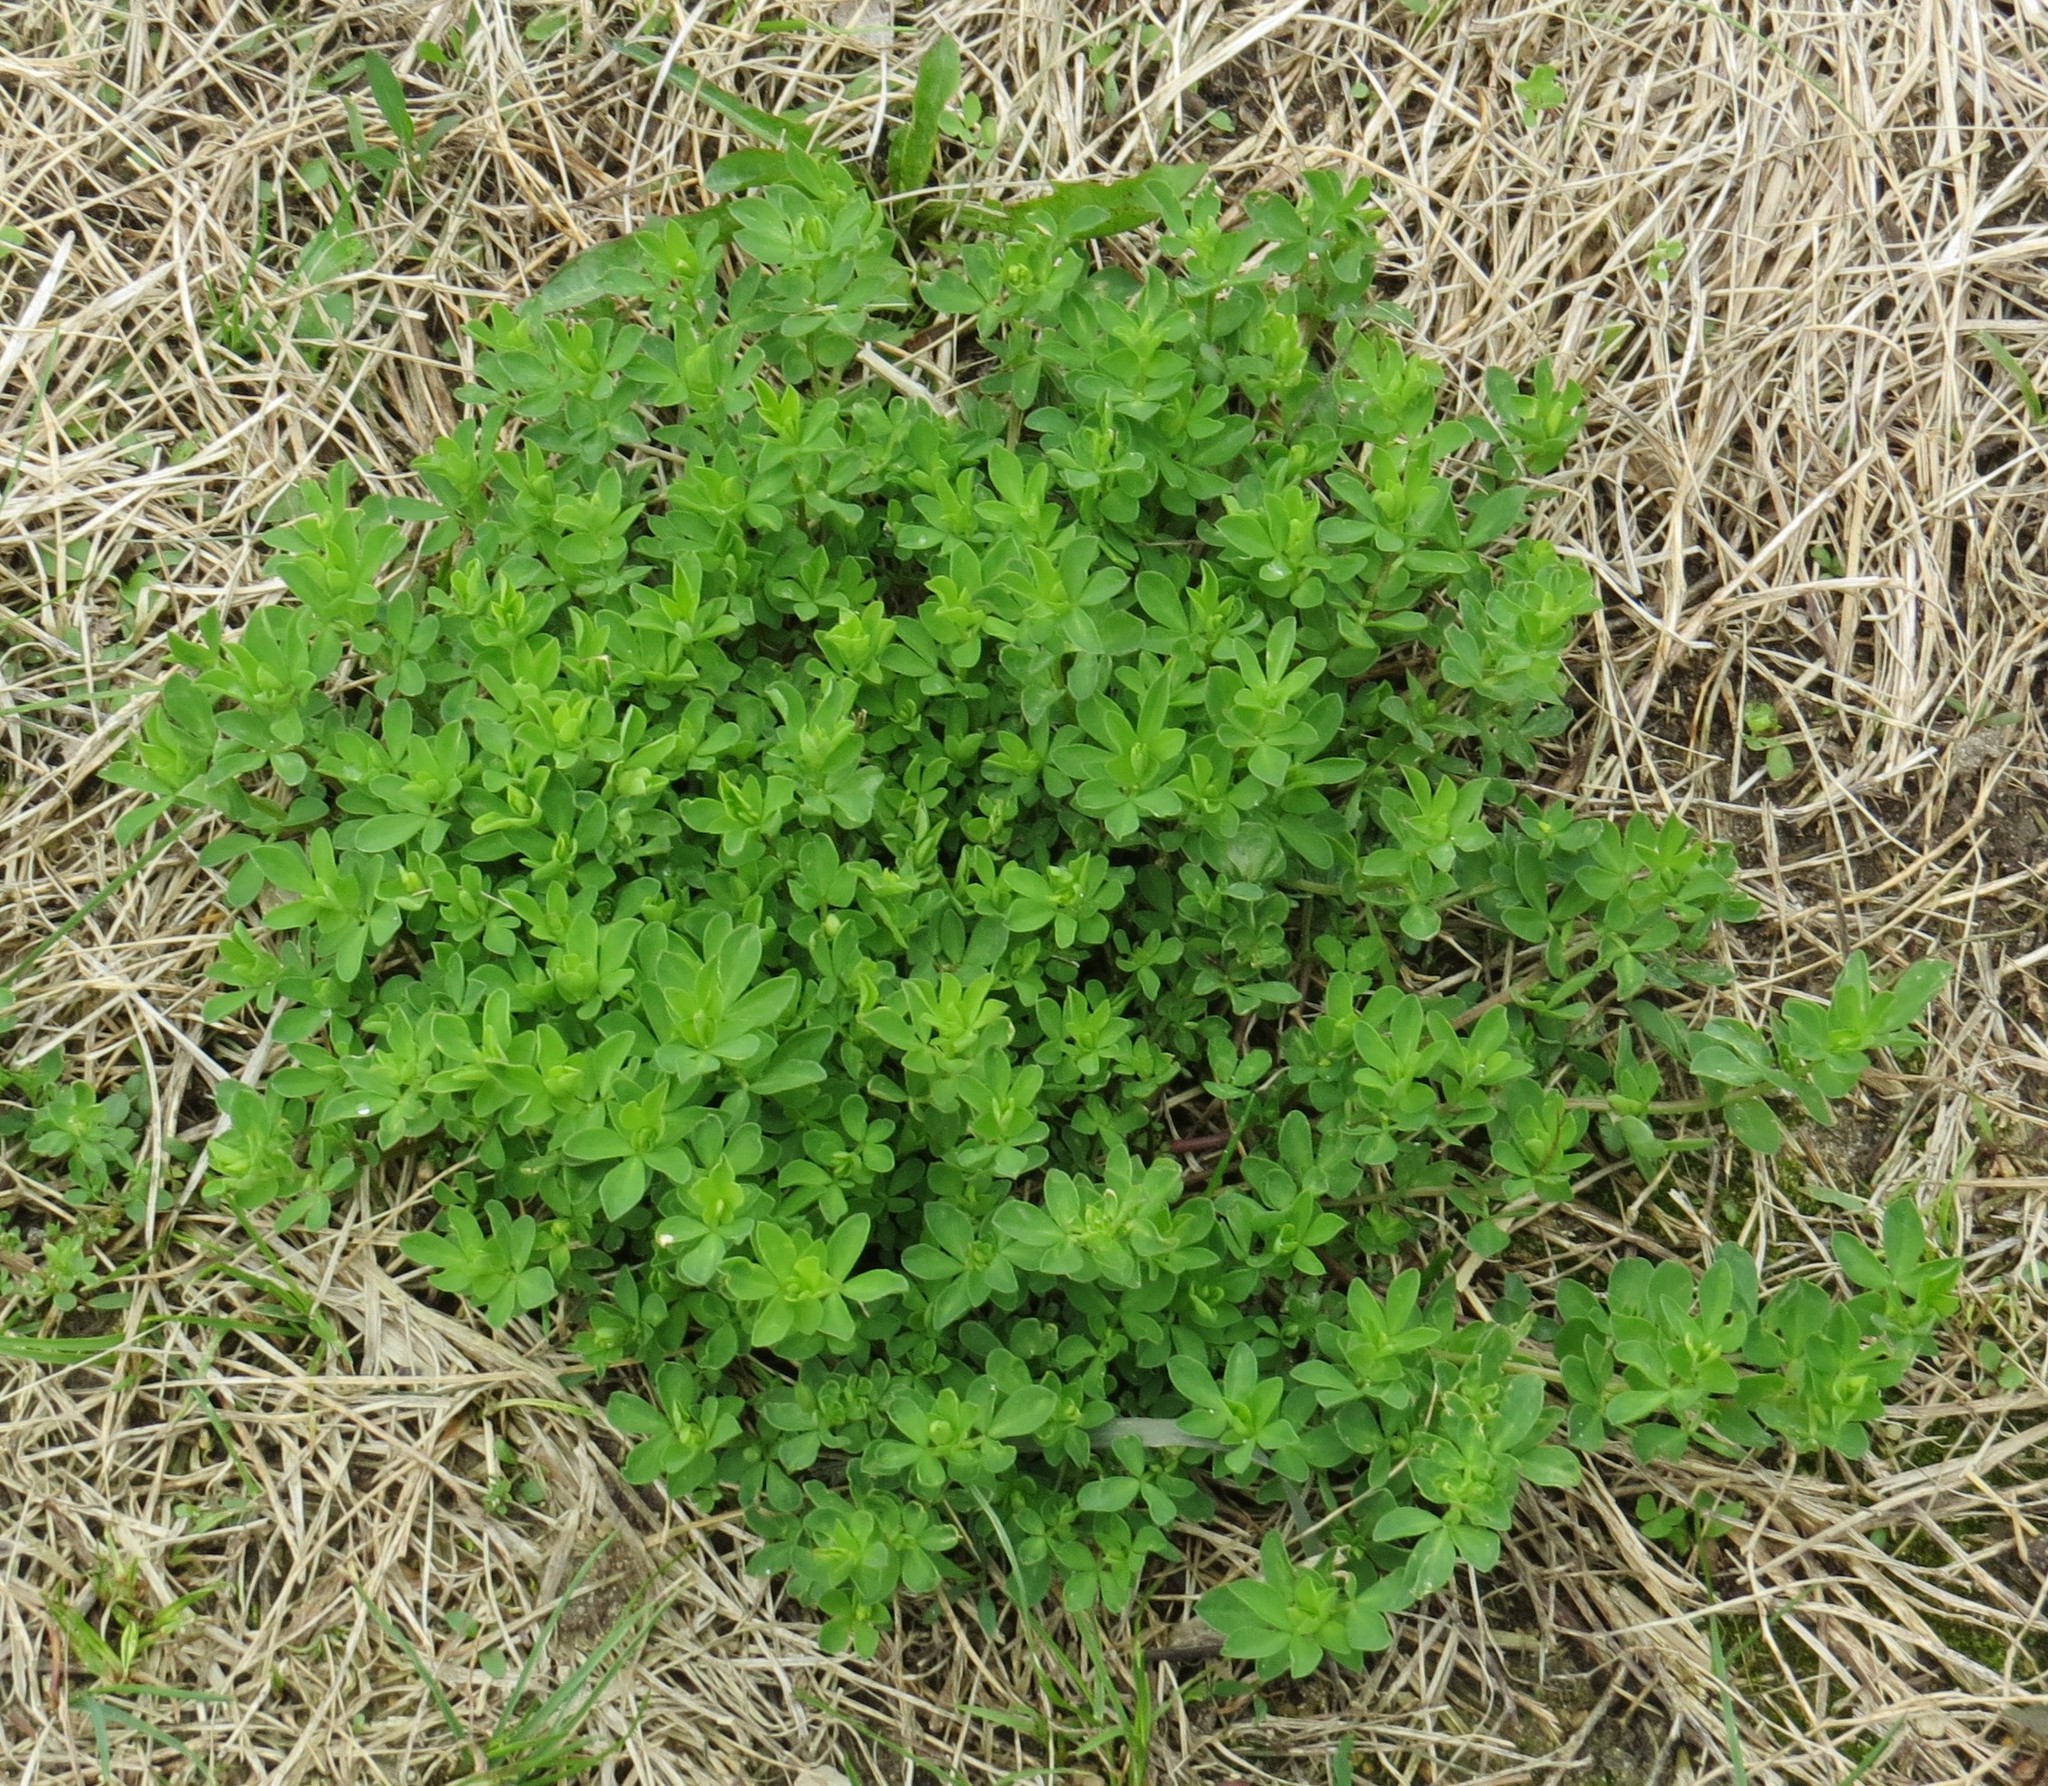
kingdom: Plantae
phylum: Tracheophyta
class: Magnoliopsida
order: Fabales
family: Fabaceae
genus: Lotus
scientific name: Lotus corniculatus
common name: Common bird's-foot-trefoil
